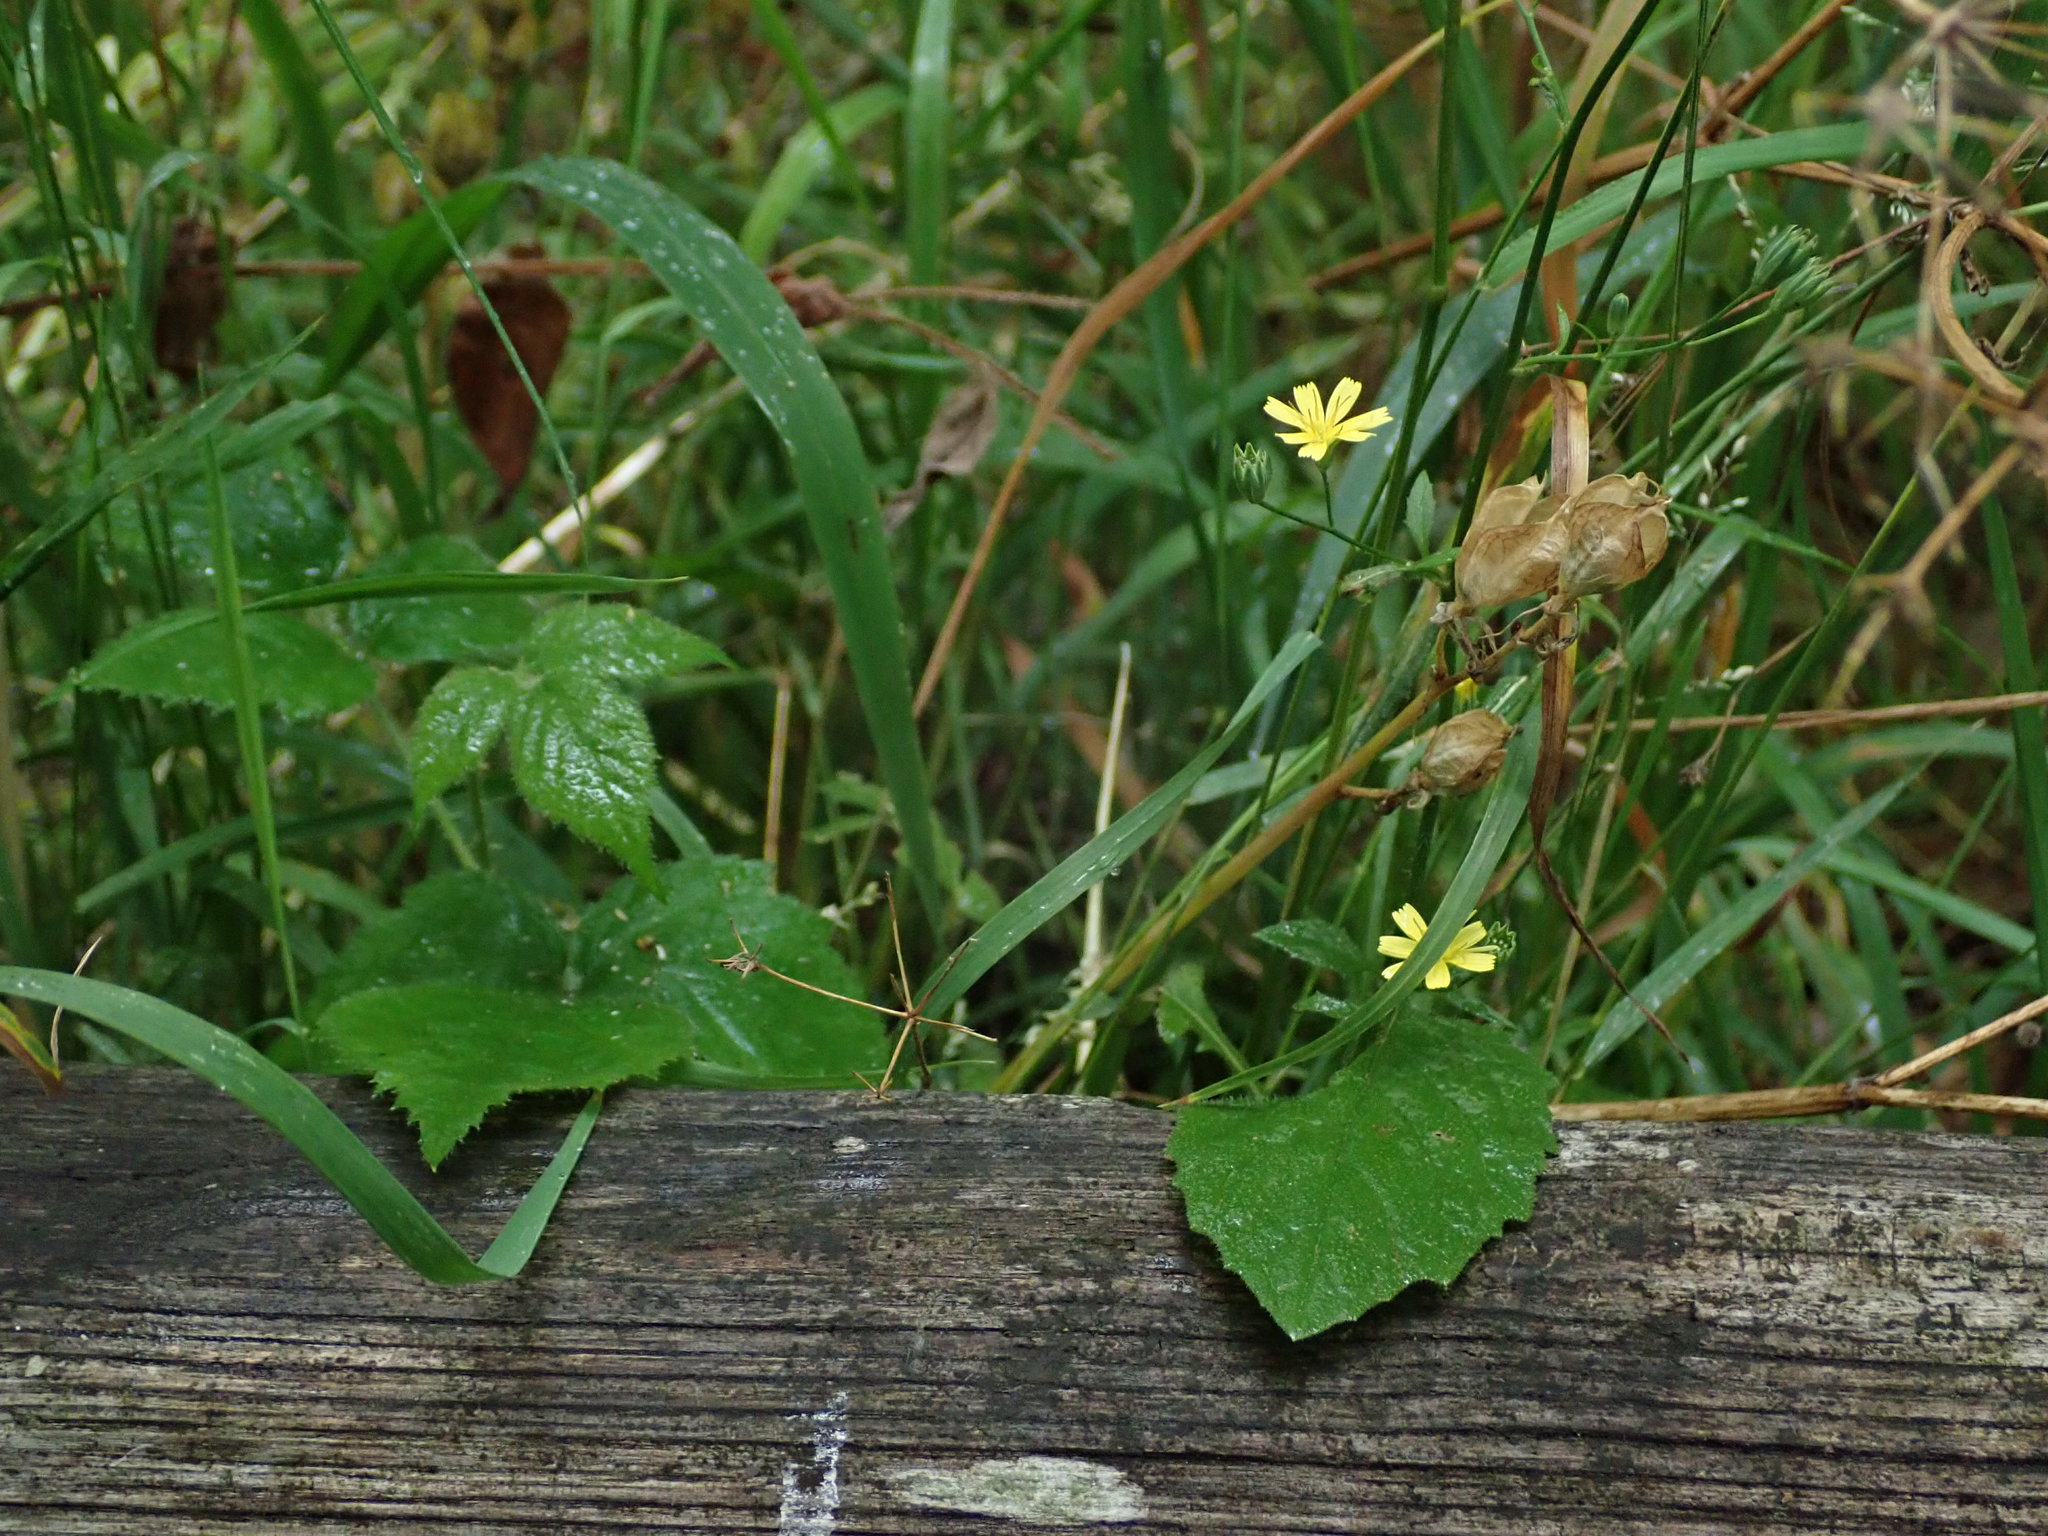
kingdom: Plantae
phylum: Tracheophyta
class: Magnoliopsida
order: Asterales
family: Asteraceae
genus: Lapsana
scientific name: Lapsana communis
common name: Nipplewort
